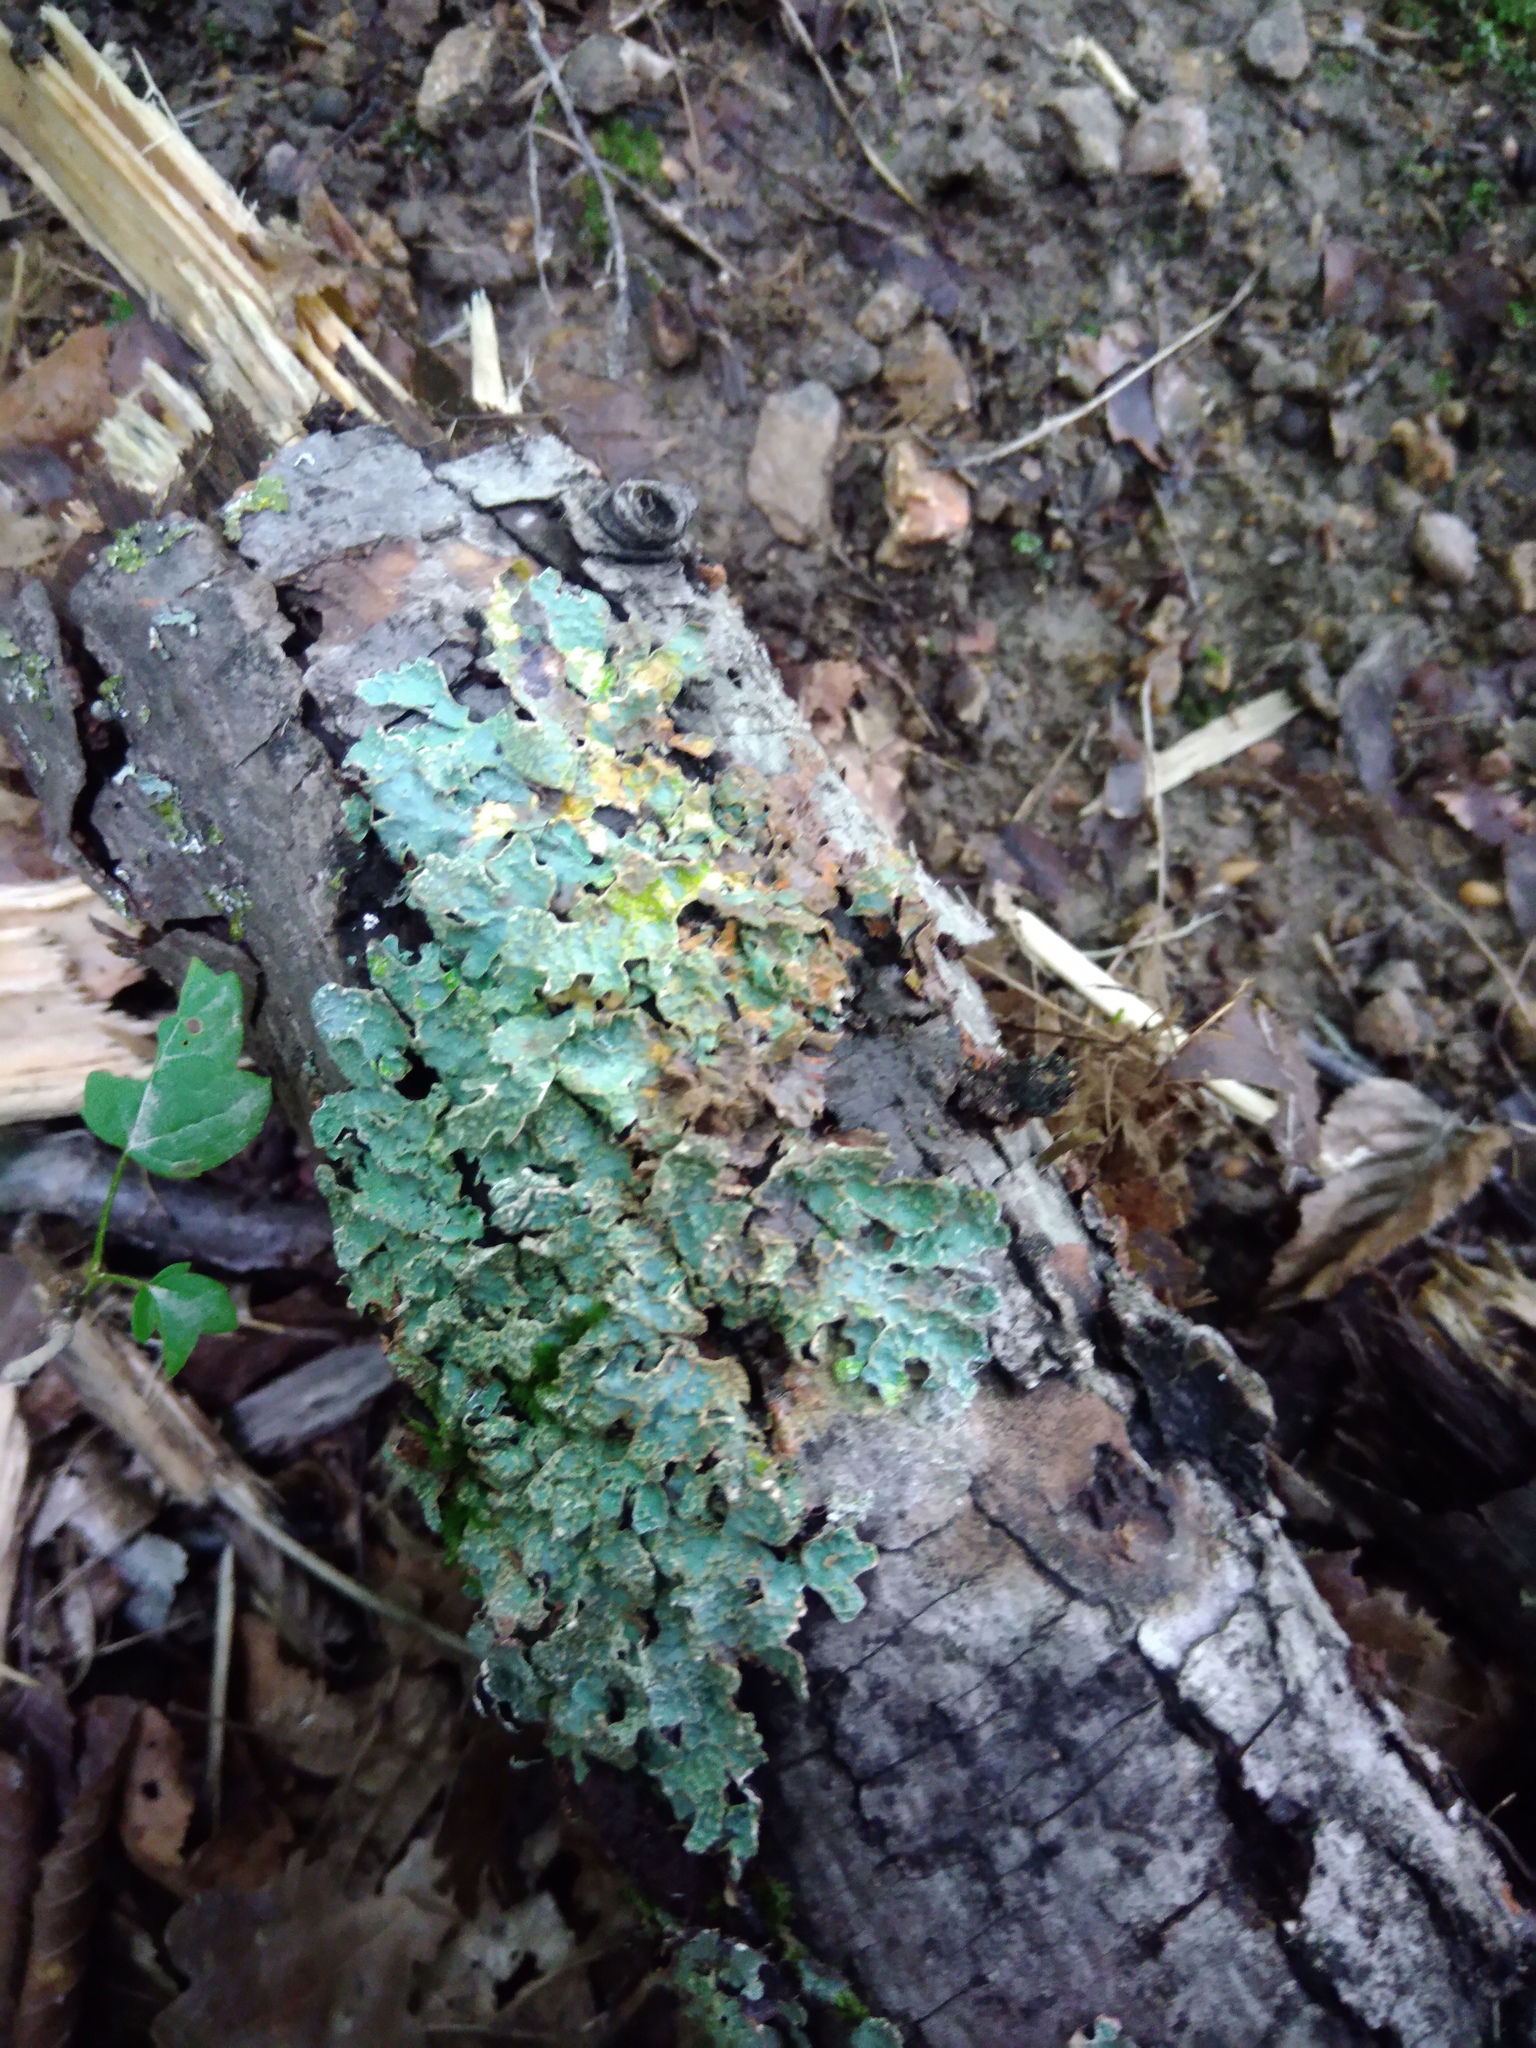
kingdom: Fungi
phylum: Ascomycota
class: Lecanoromycetes
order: Lecanorales
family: Parmeliaceae
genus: Parmelia
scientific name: Parmelia sulcata
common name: Netted shield lichen
